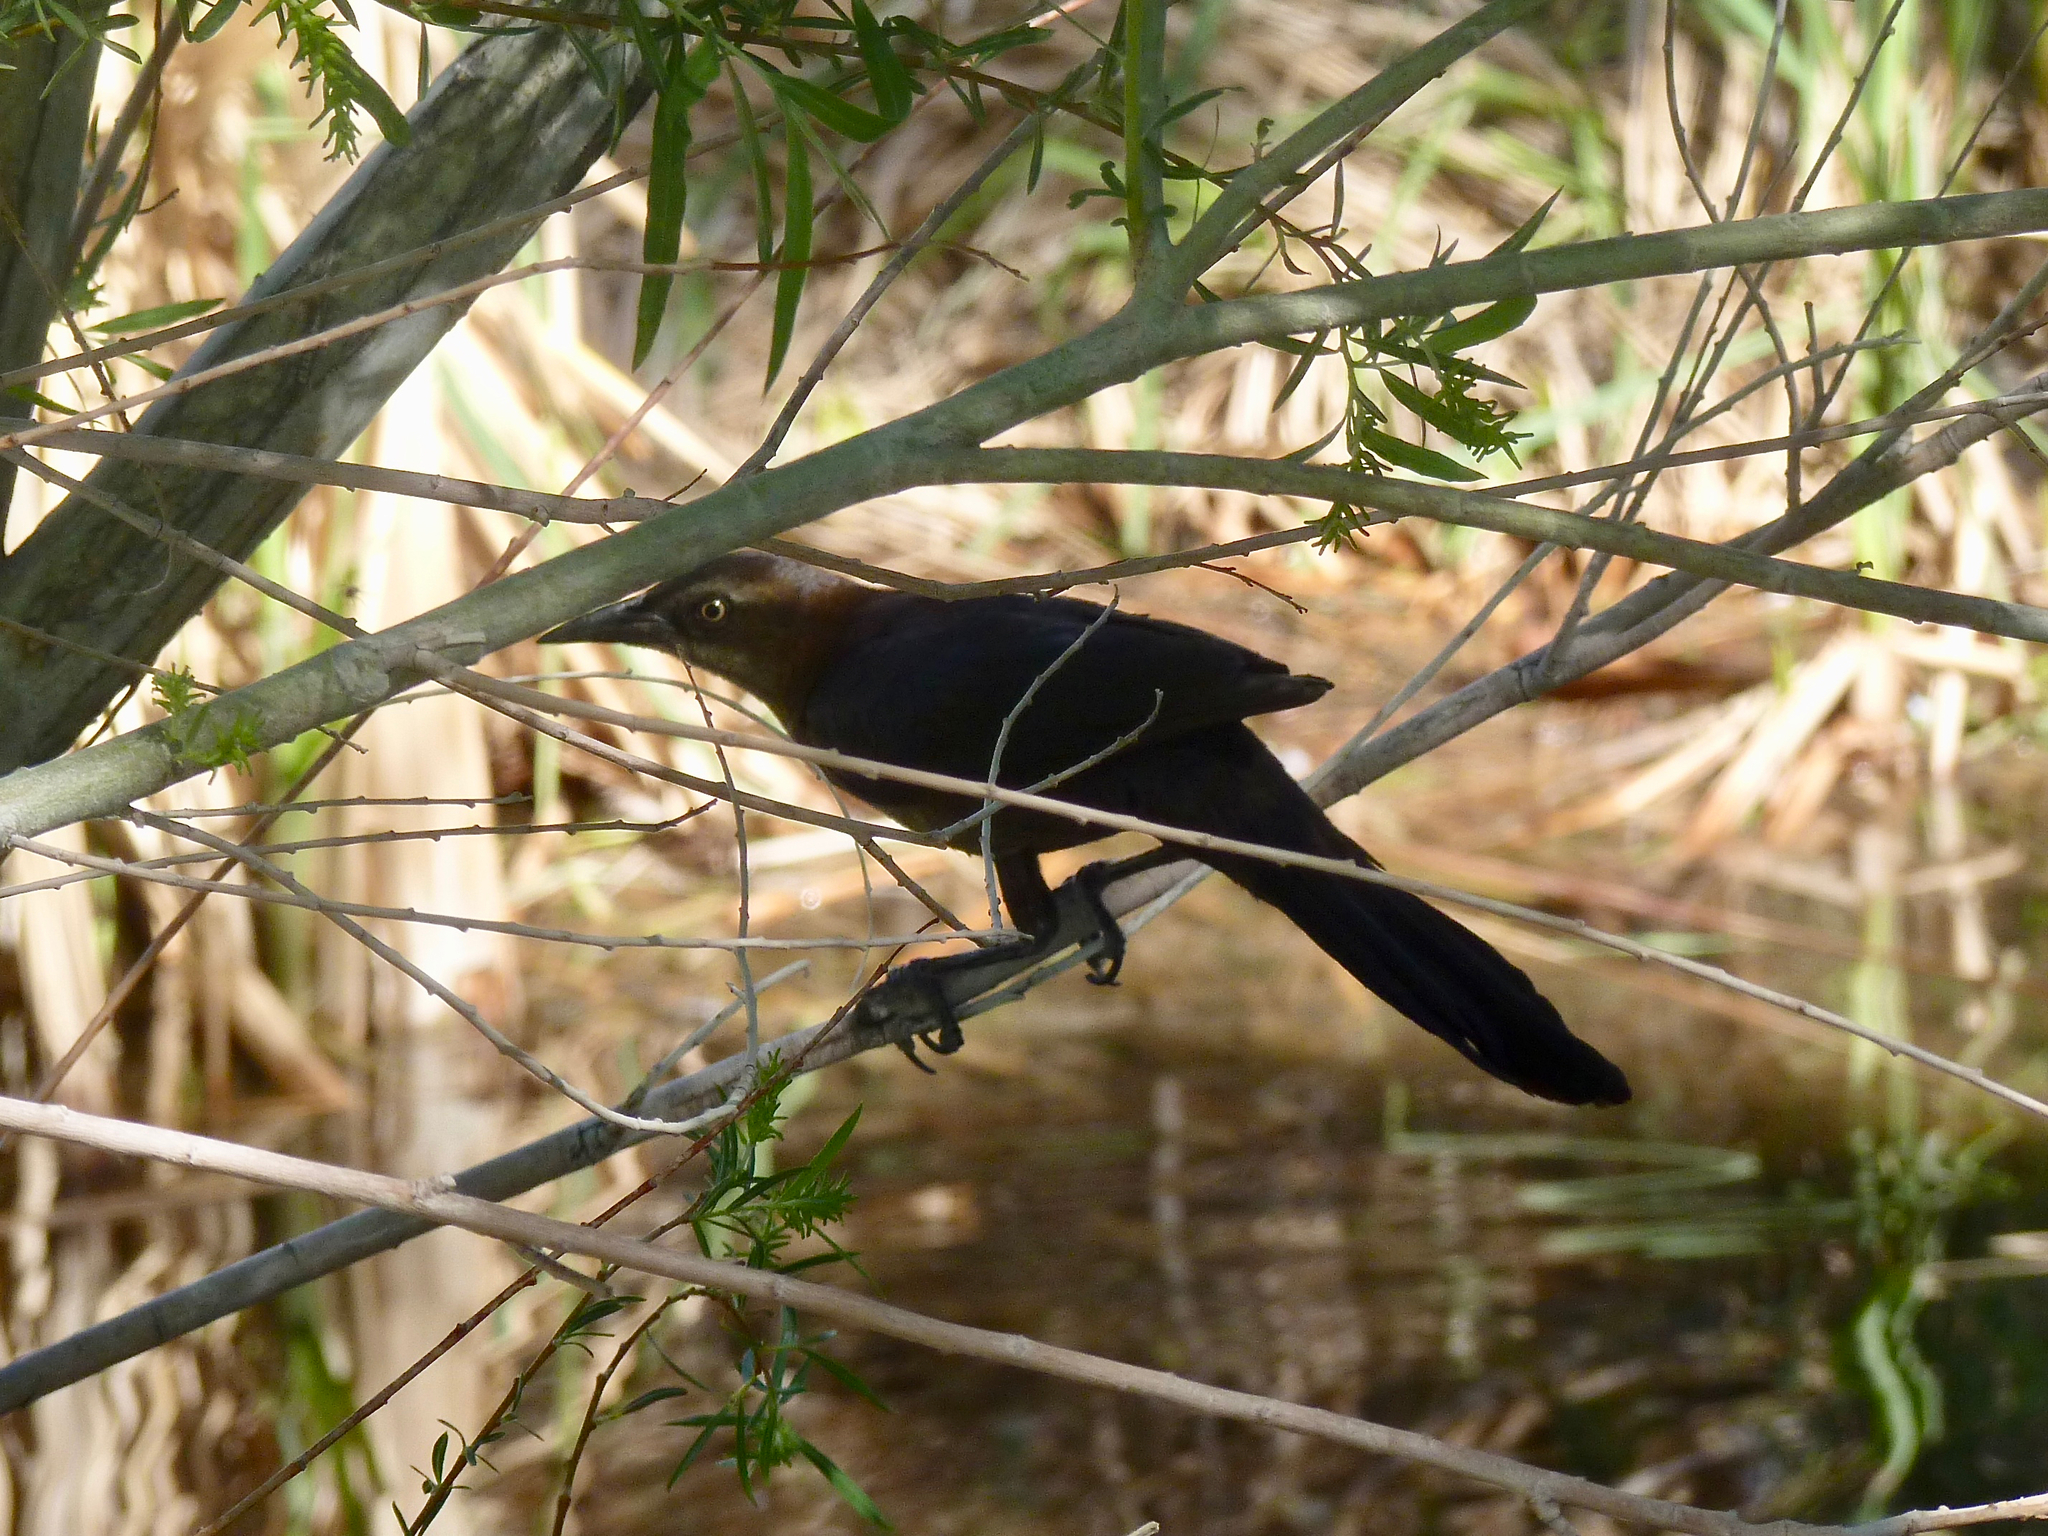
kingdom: Animalia
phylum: Chordata
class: Aves
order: Passeriformes
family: Icteridae
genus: Quiscalus
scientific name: Quiscalus mexicanus
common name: Great-tailed grackle
